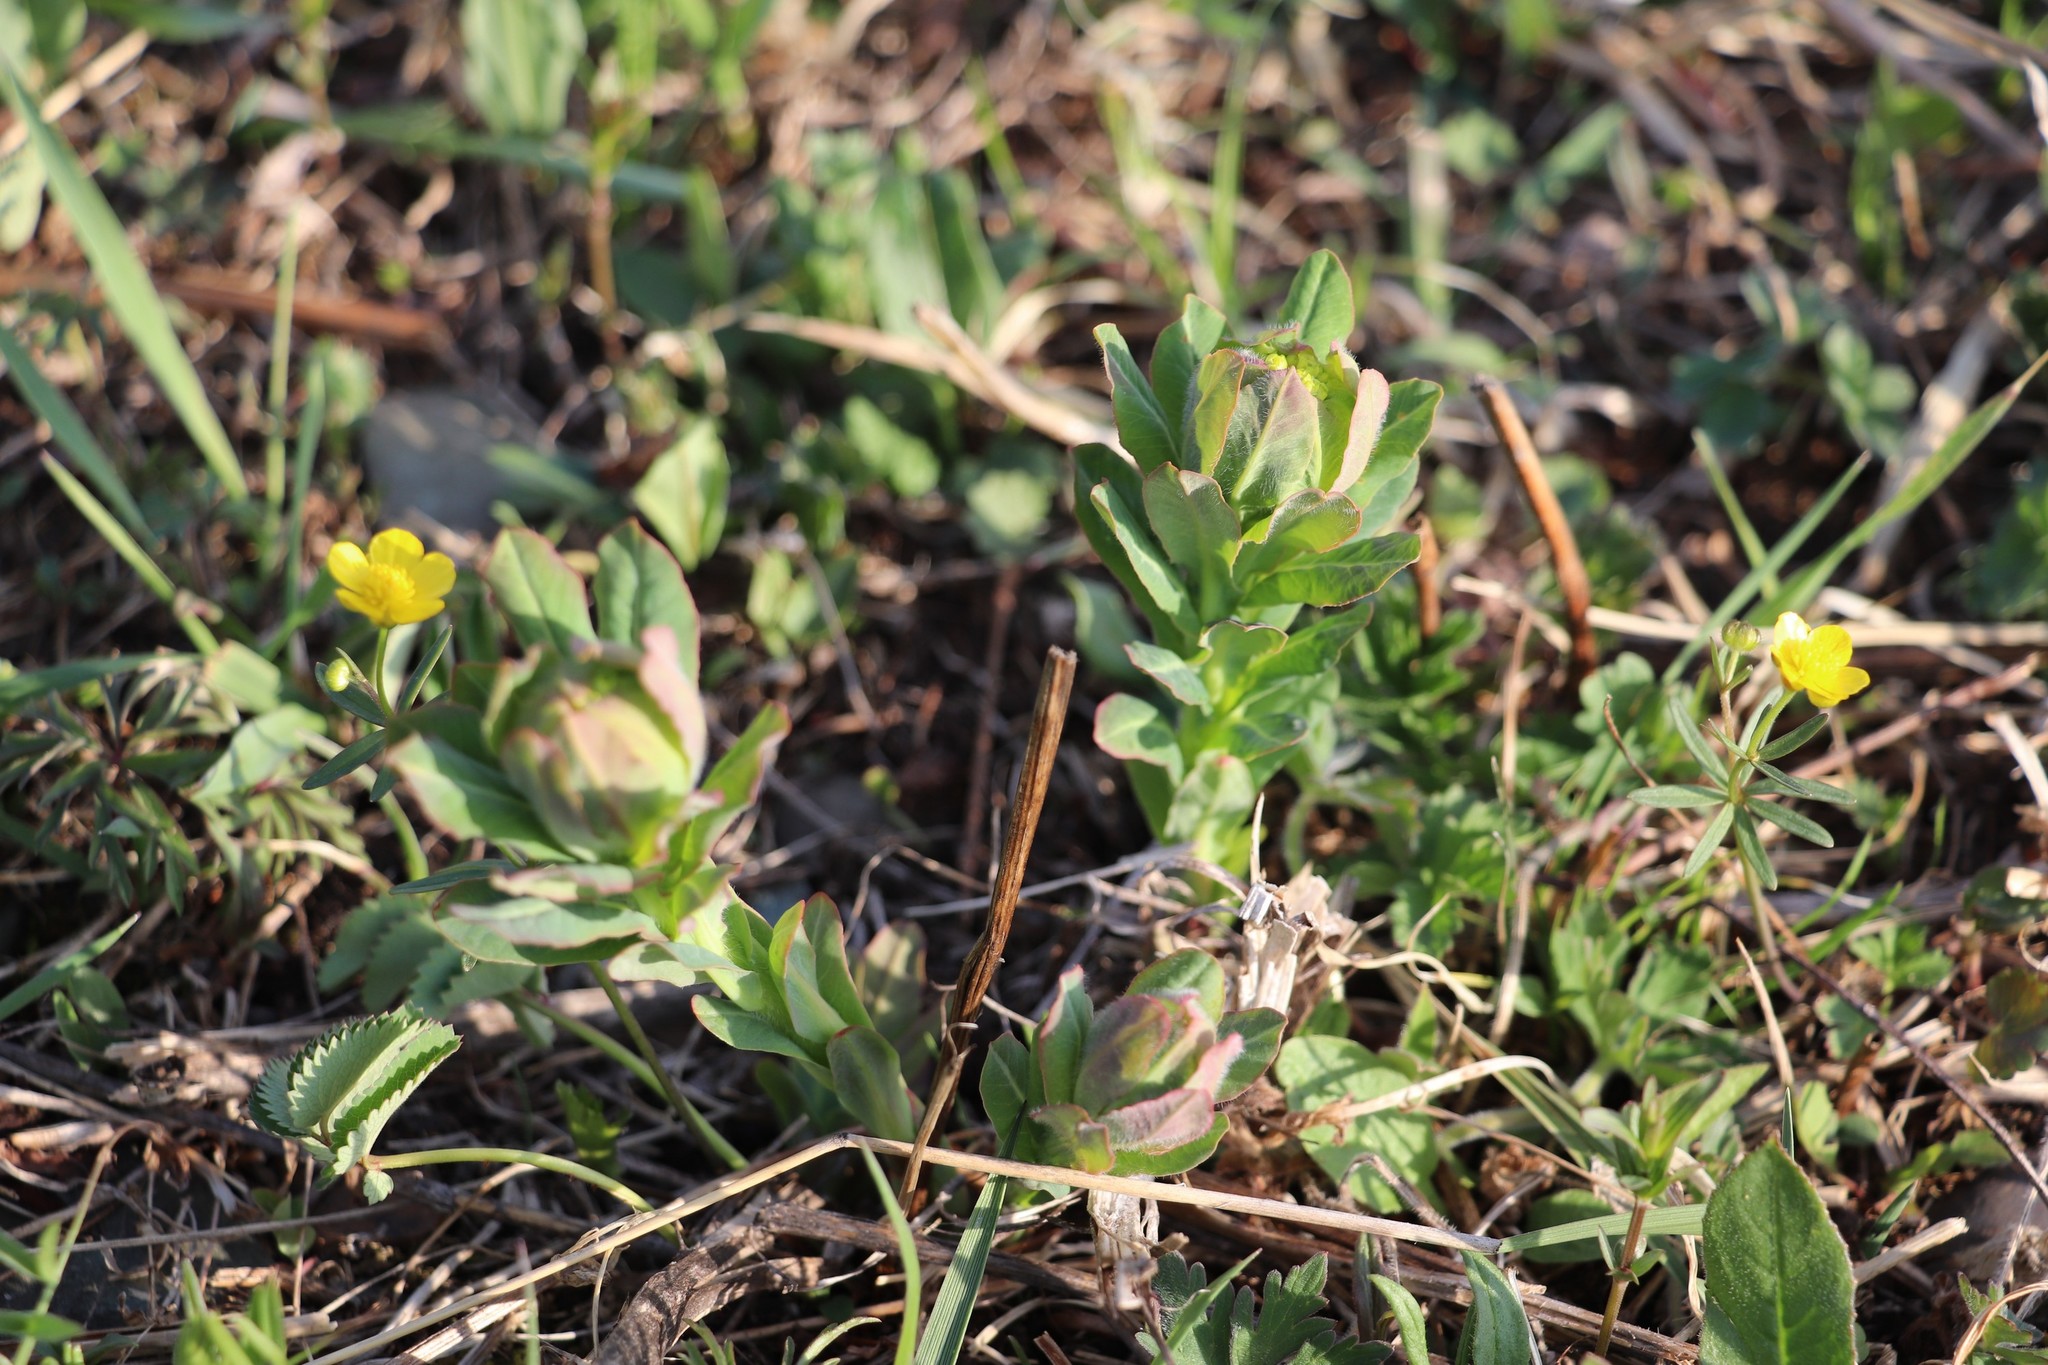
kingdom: Plantae
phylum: Tracheophyta
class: Magnoliopsida
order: Malpighiales
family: Euphorbiaceae
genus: Euphorbia
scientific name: Euphorbia pilosa
